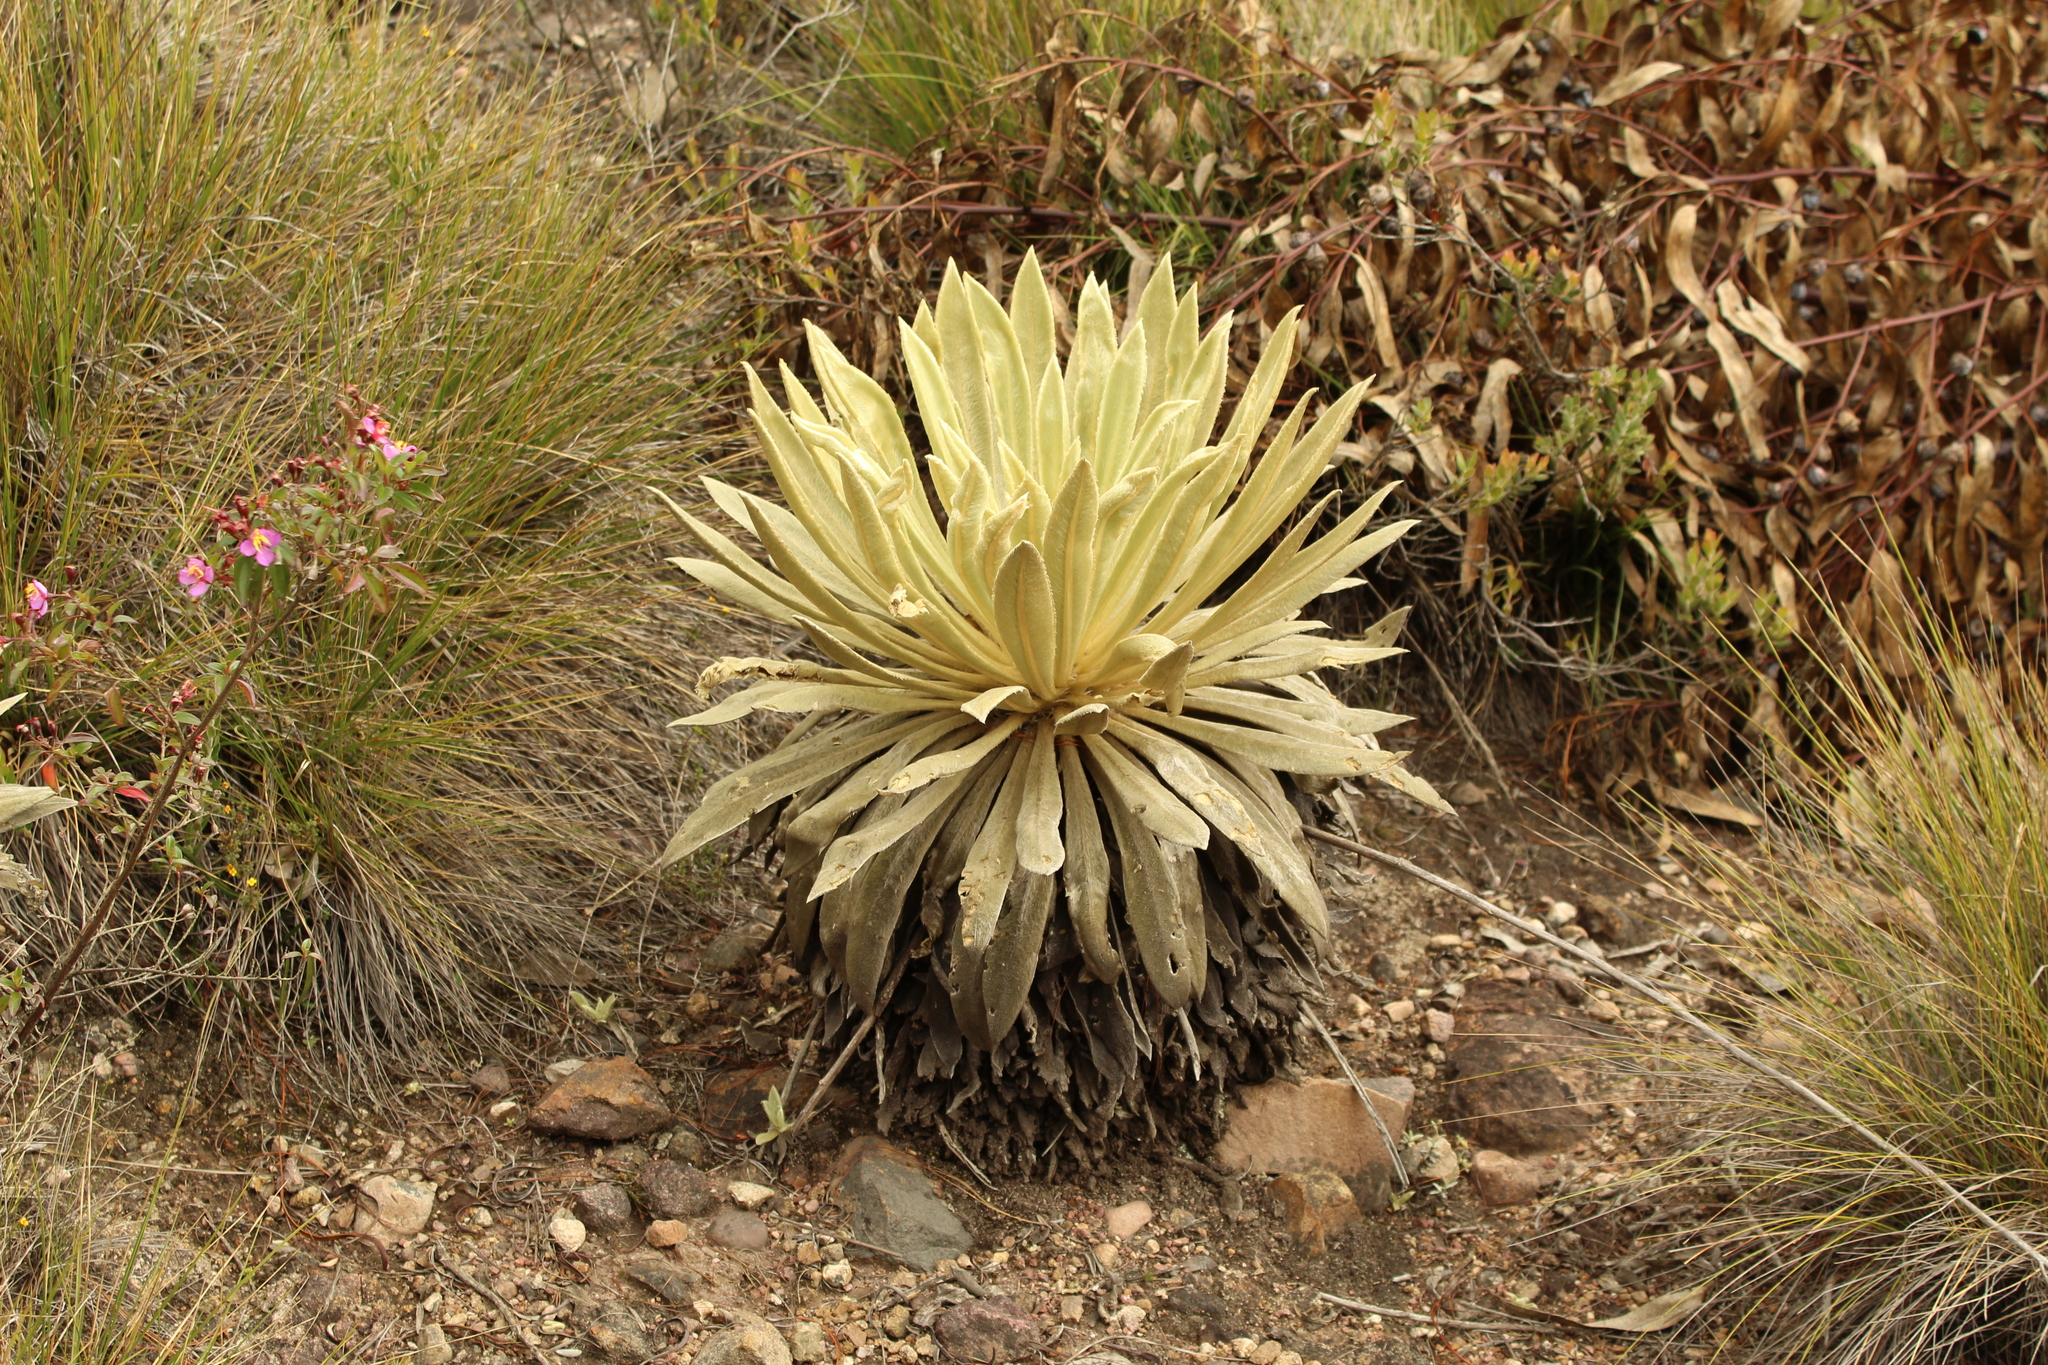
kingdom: Plantae
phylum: Tracheophyta
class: Magnoliopsida
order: Asterales
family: Asteraceae
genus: Espeletia
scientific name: Espeletia muiska
